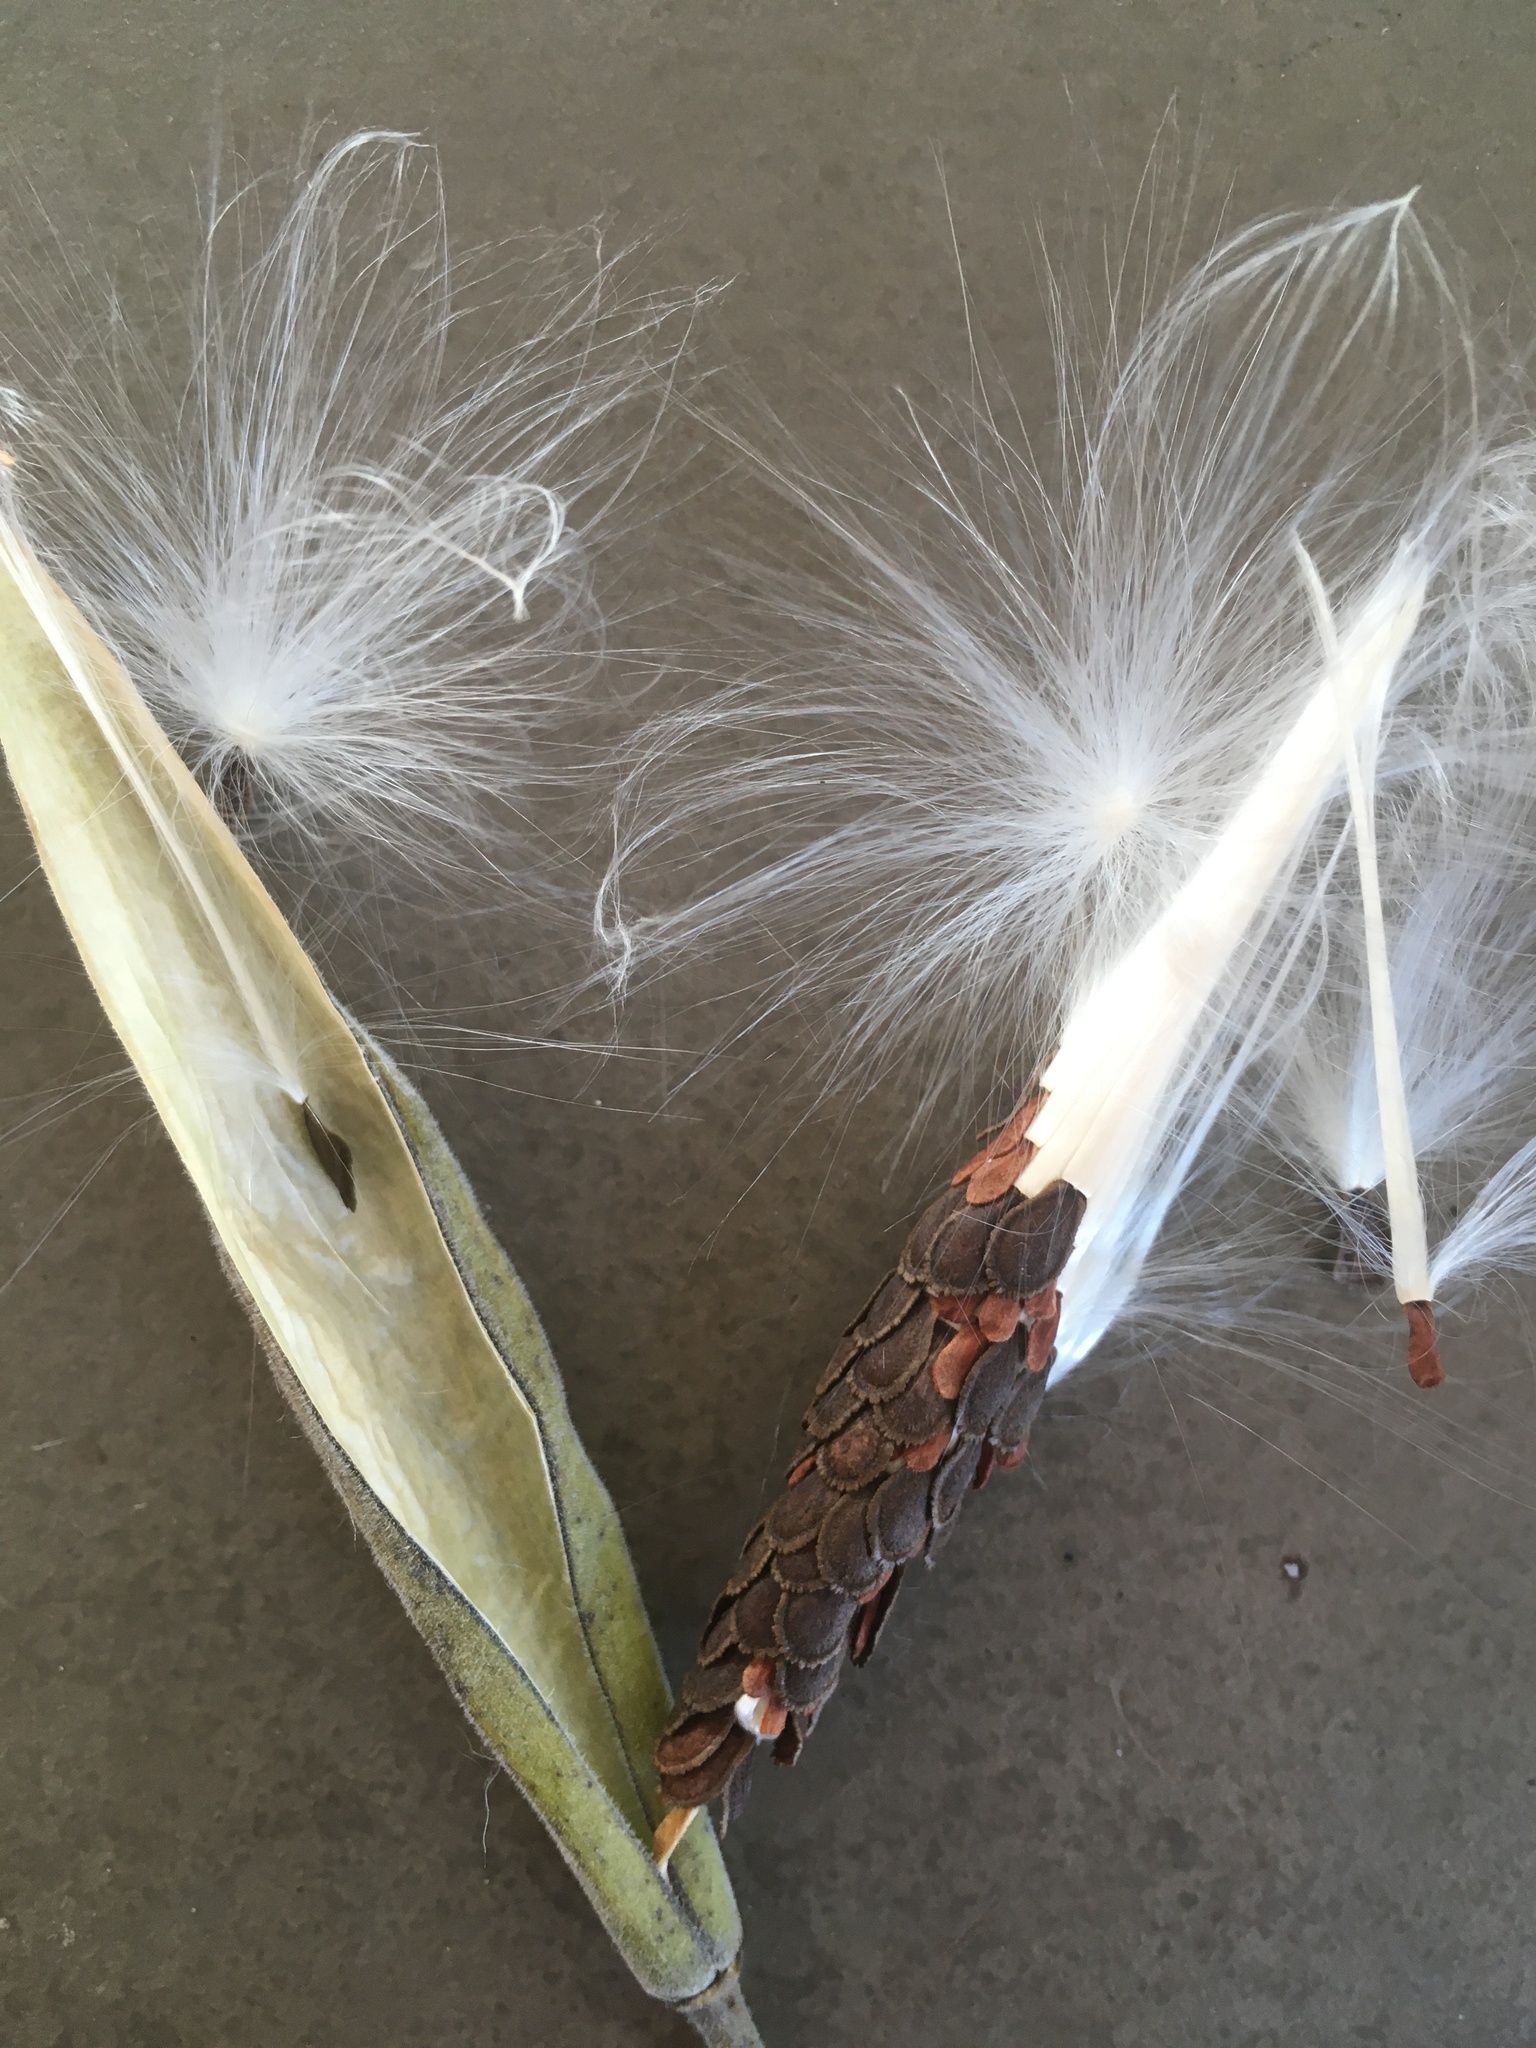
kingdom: Plantae
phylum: Tracheophyta
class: Magnoliopsida
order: Gentianales
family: Apocynaceae
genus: Oxypetalum
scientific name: Oxypetalum solanoides
